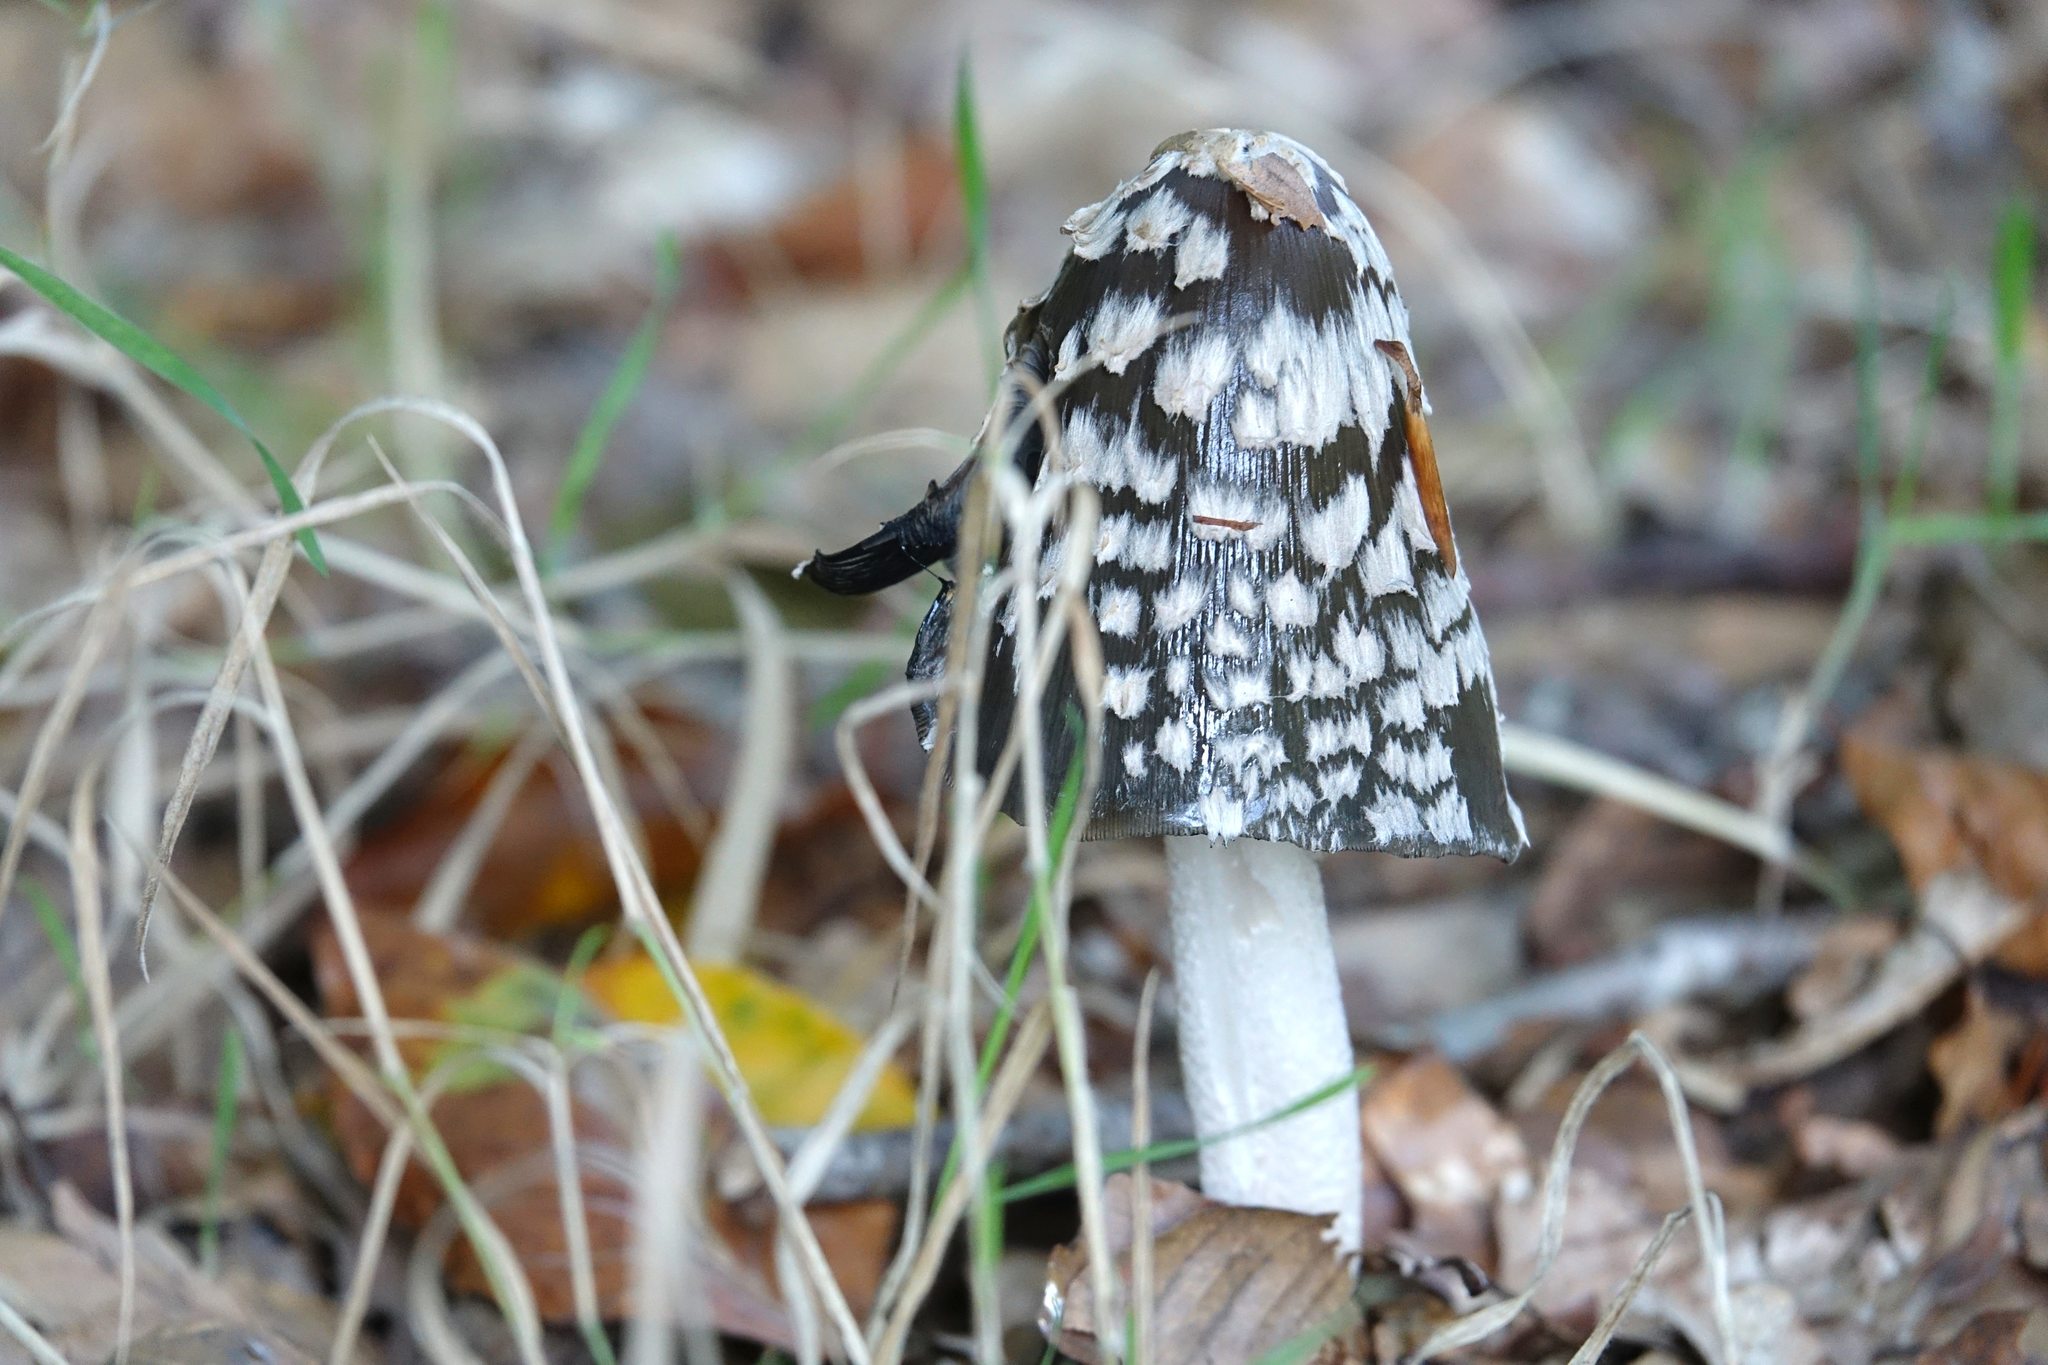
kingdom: Fungi
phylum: Basidiomycota
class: Agaricomycetes
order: Agaricales
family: Psathyrellaceae
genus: Coprinopsis
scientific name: Coprinopsis picacea
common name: Magpie inkcap
